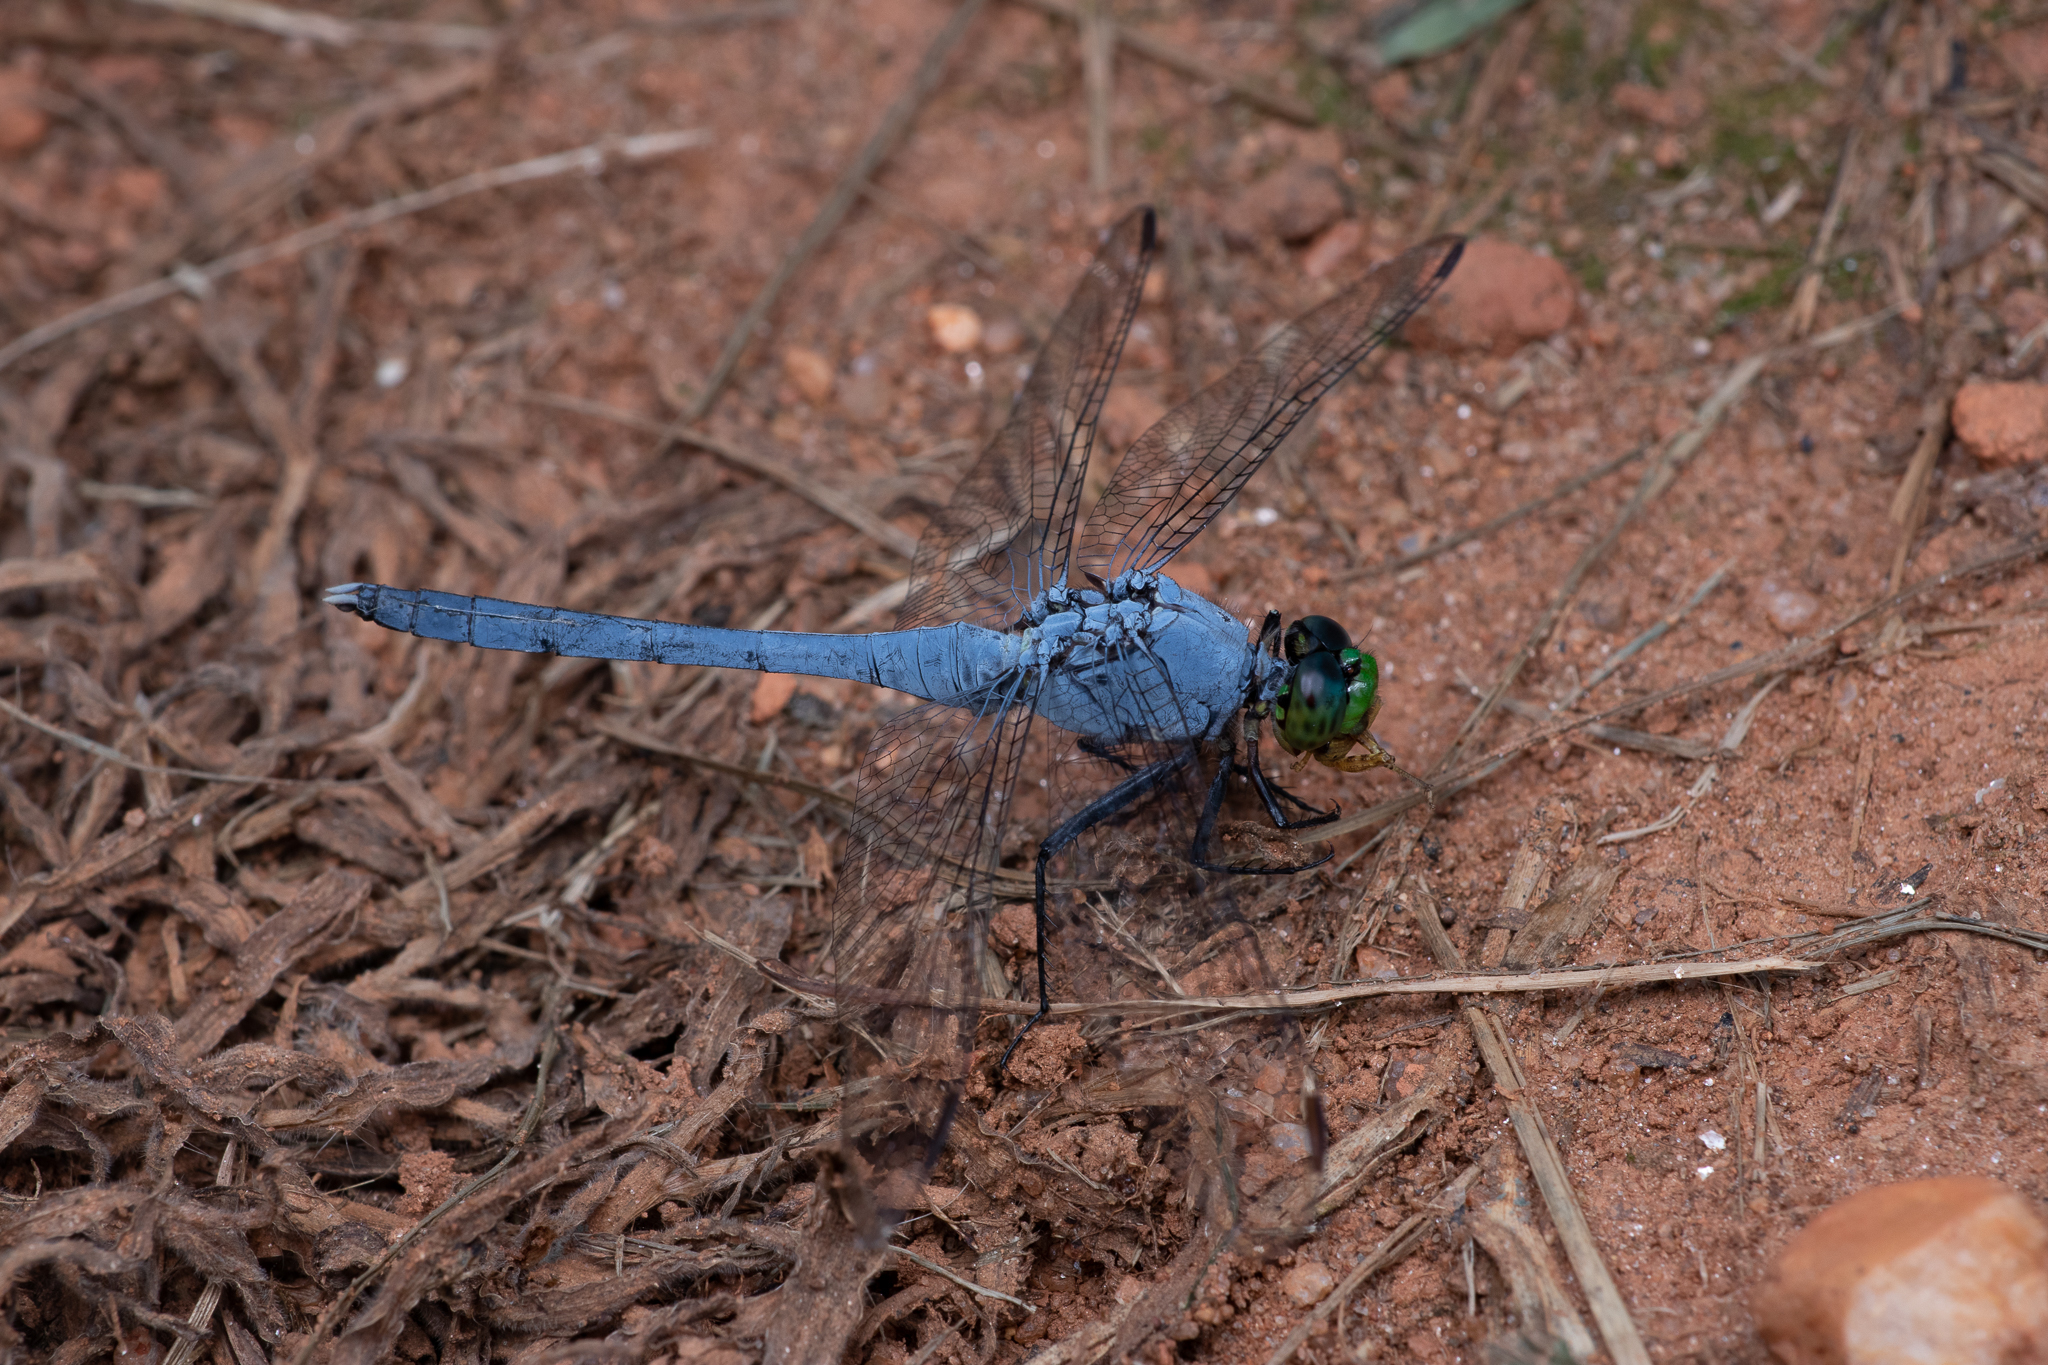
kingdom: Animalia
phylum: Arthropoda
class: Insecta
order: Odonata
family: Libellulidae
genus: Erythemis
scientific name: Erythemis simplicicollis
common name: Eastern pondhawk
